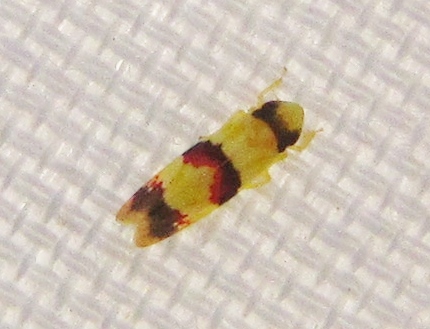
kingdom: Animalia
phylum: Arthropoda
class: Insecta
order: Hemiptera
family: Cicadellidae
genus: Erythroneura
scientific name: Erythroneura integra
